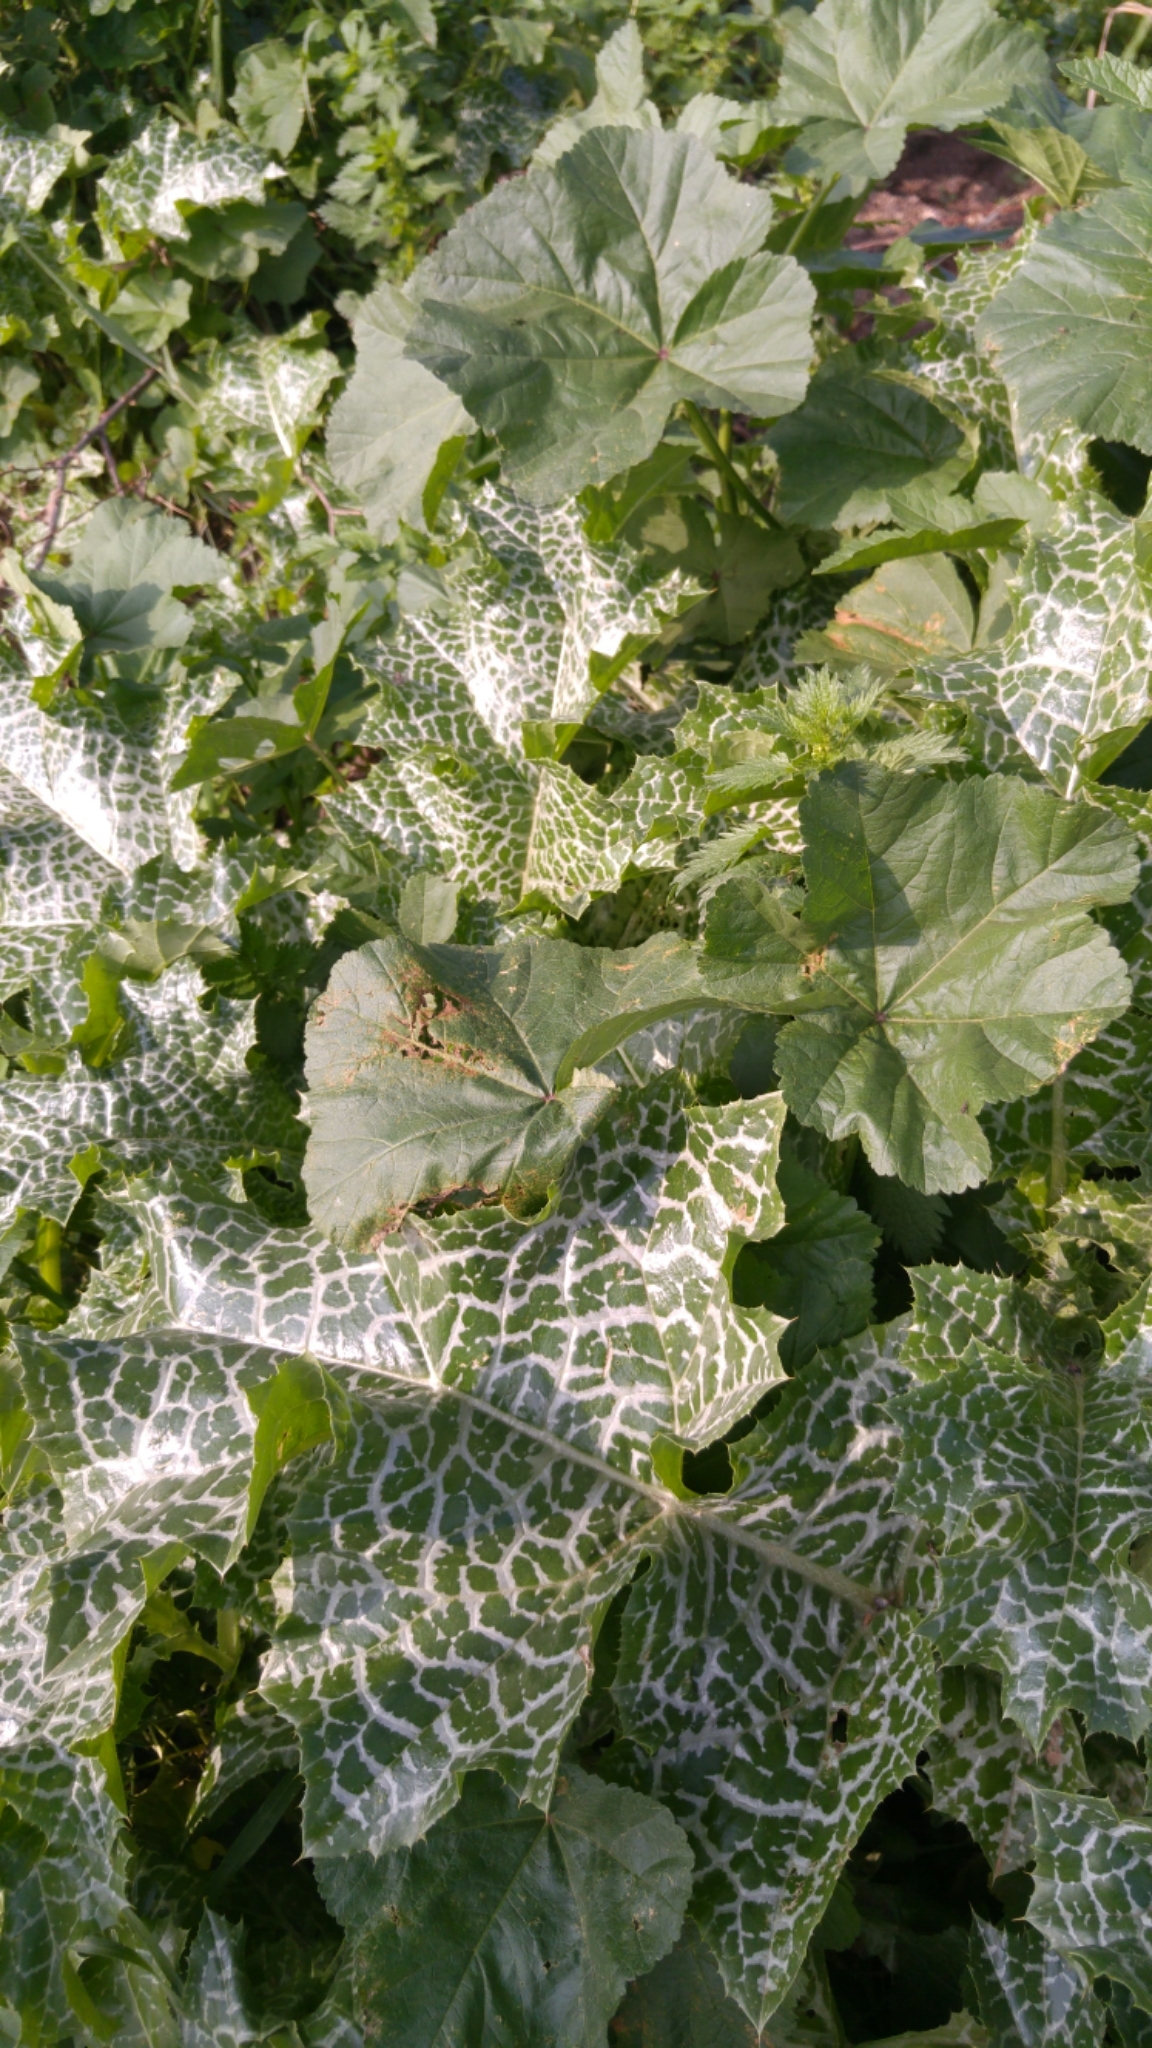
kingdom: Plantae
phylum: Tracheophyta
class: Magnoliopsida
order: Asterales
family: Asteraceae
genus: Silybum
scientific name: Silybum marianum
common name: Milk thistle
